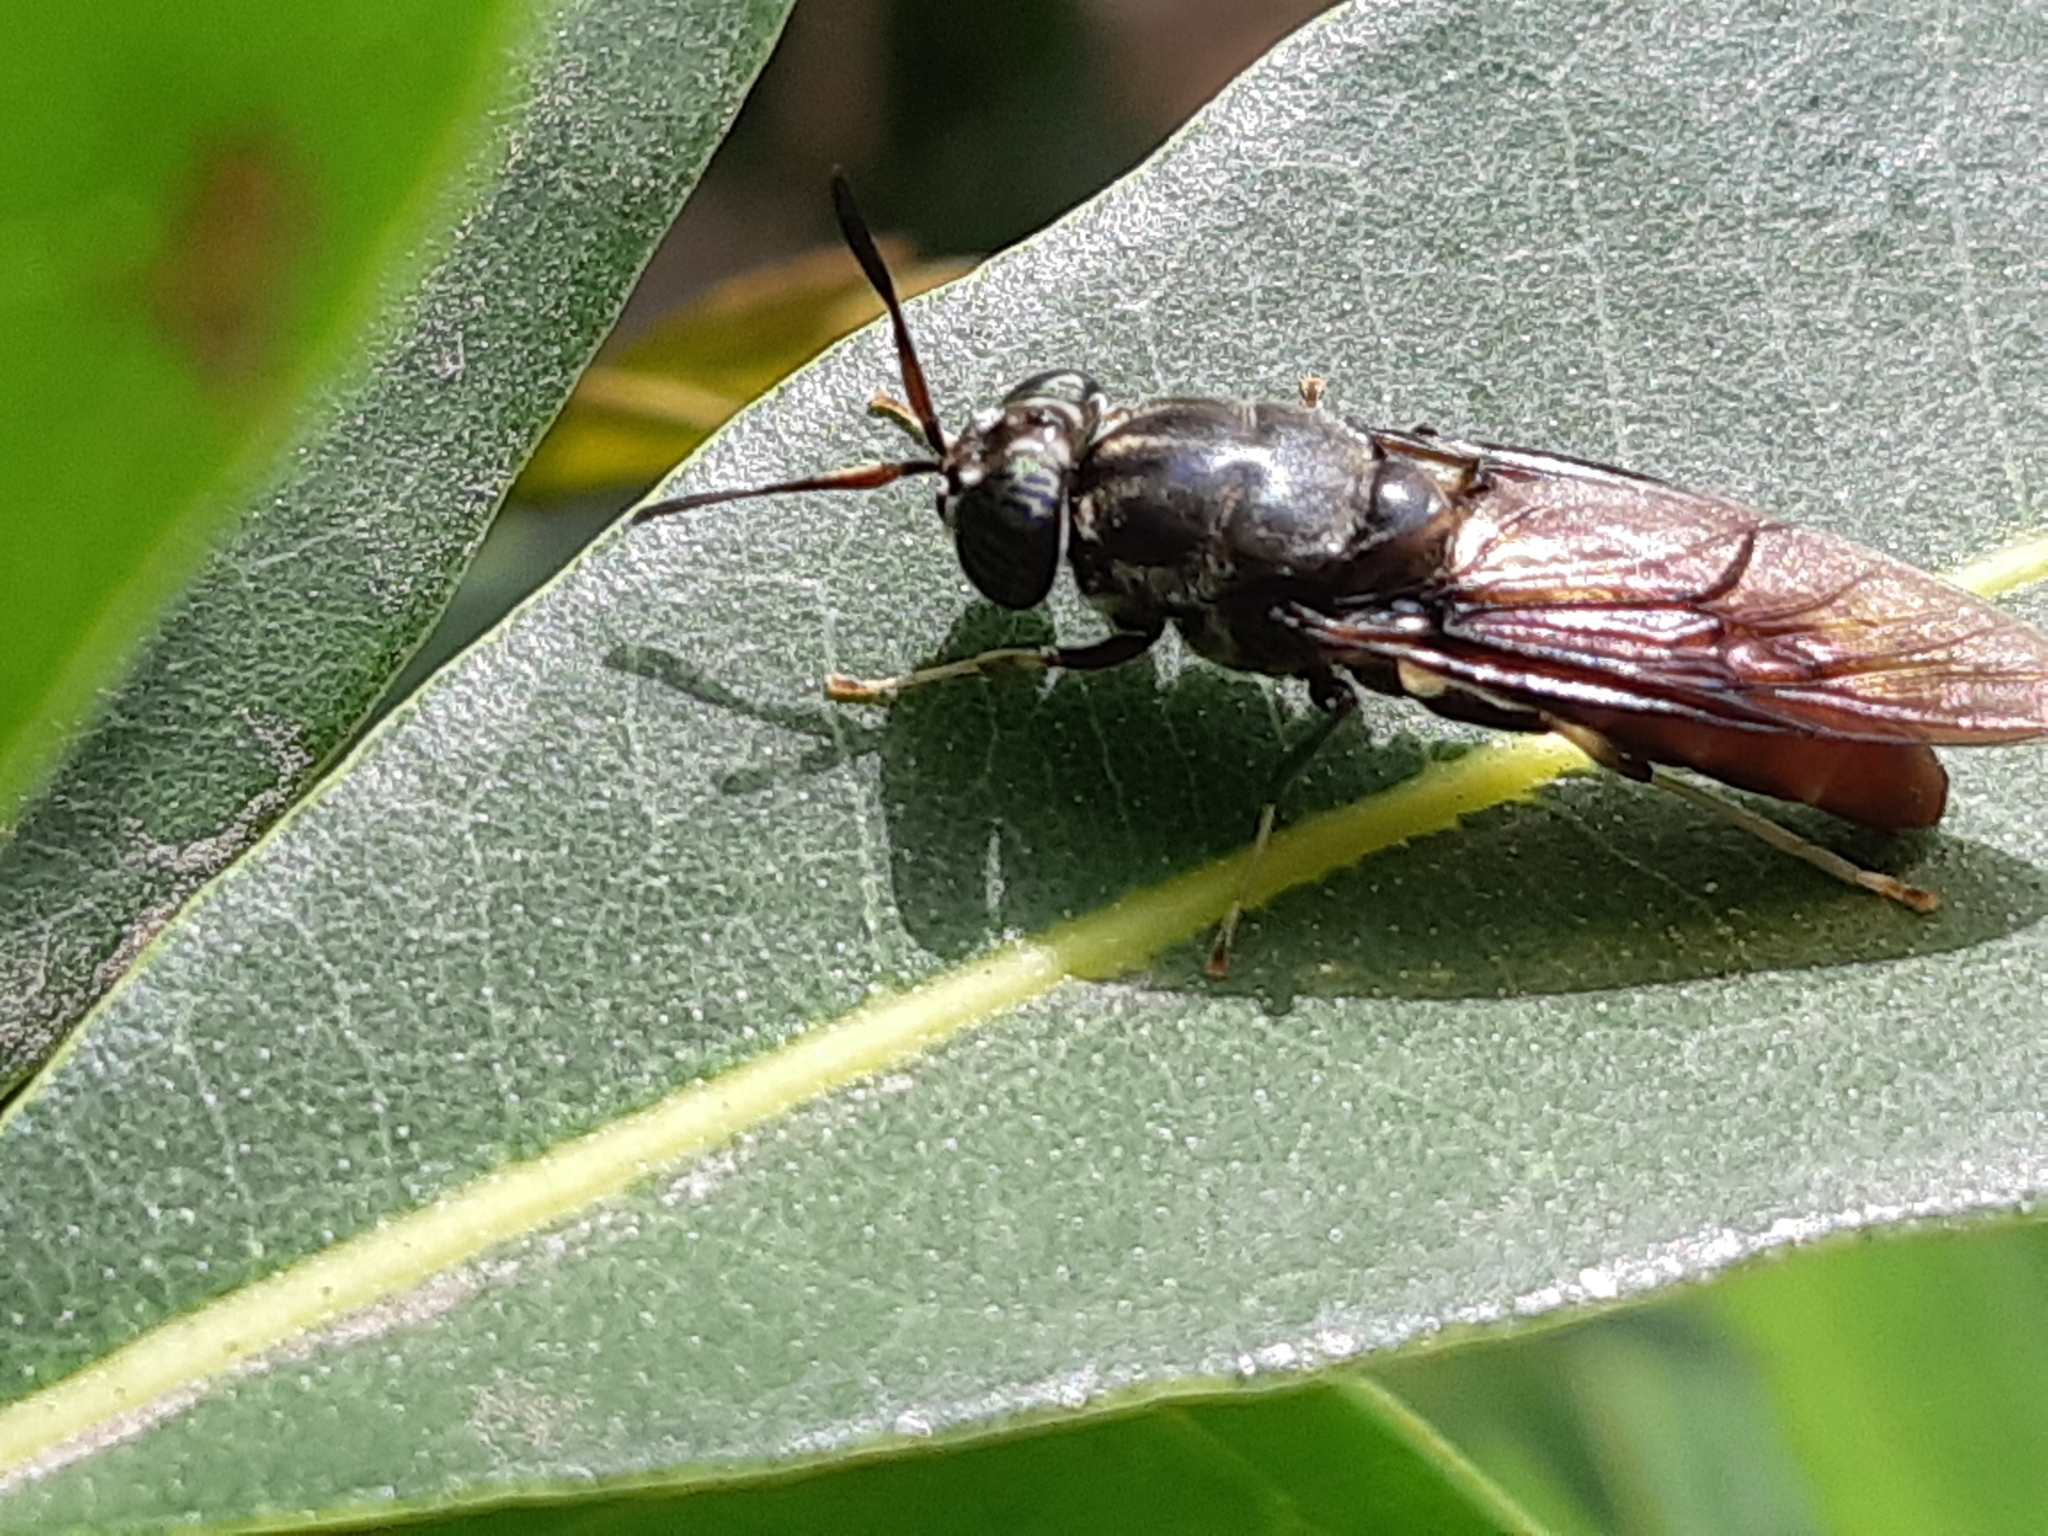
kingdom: Animalia
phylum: Arthropoda
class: Insecta
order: Diptera
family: Stratiomyidae
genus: Hermetia
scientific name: Hermetia illucens
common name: Black soldier fly
